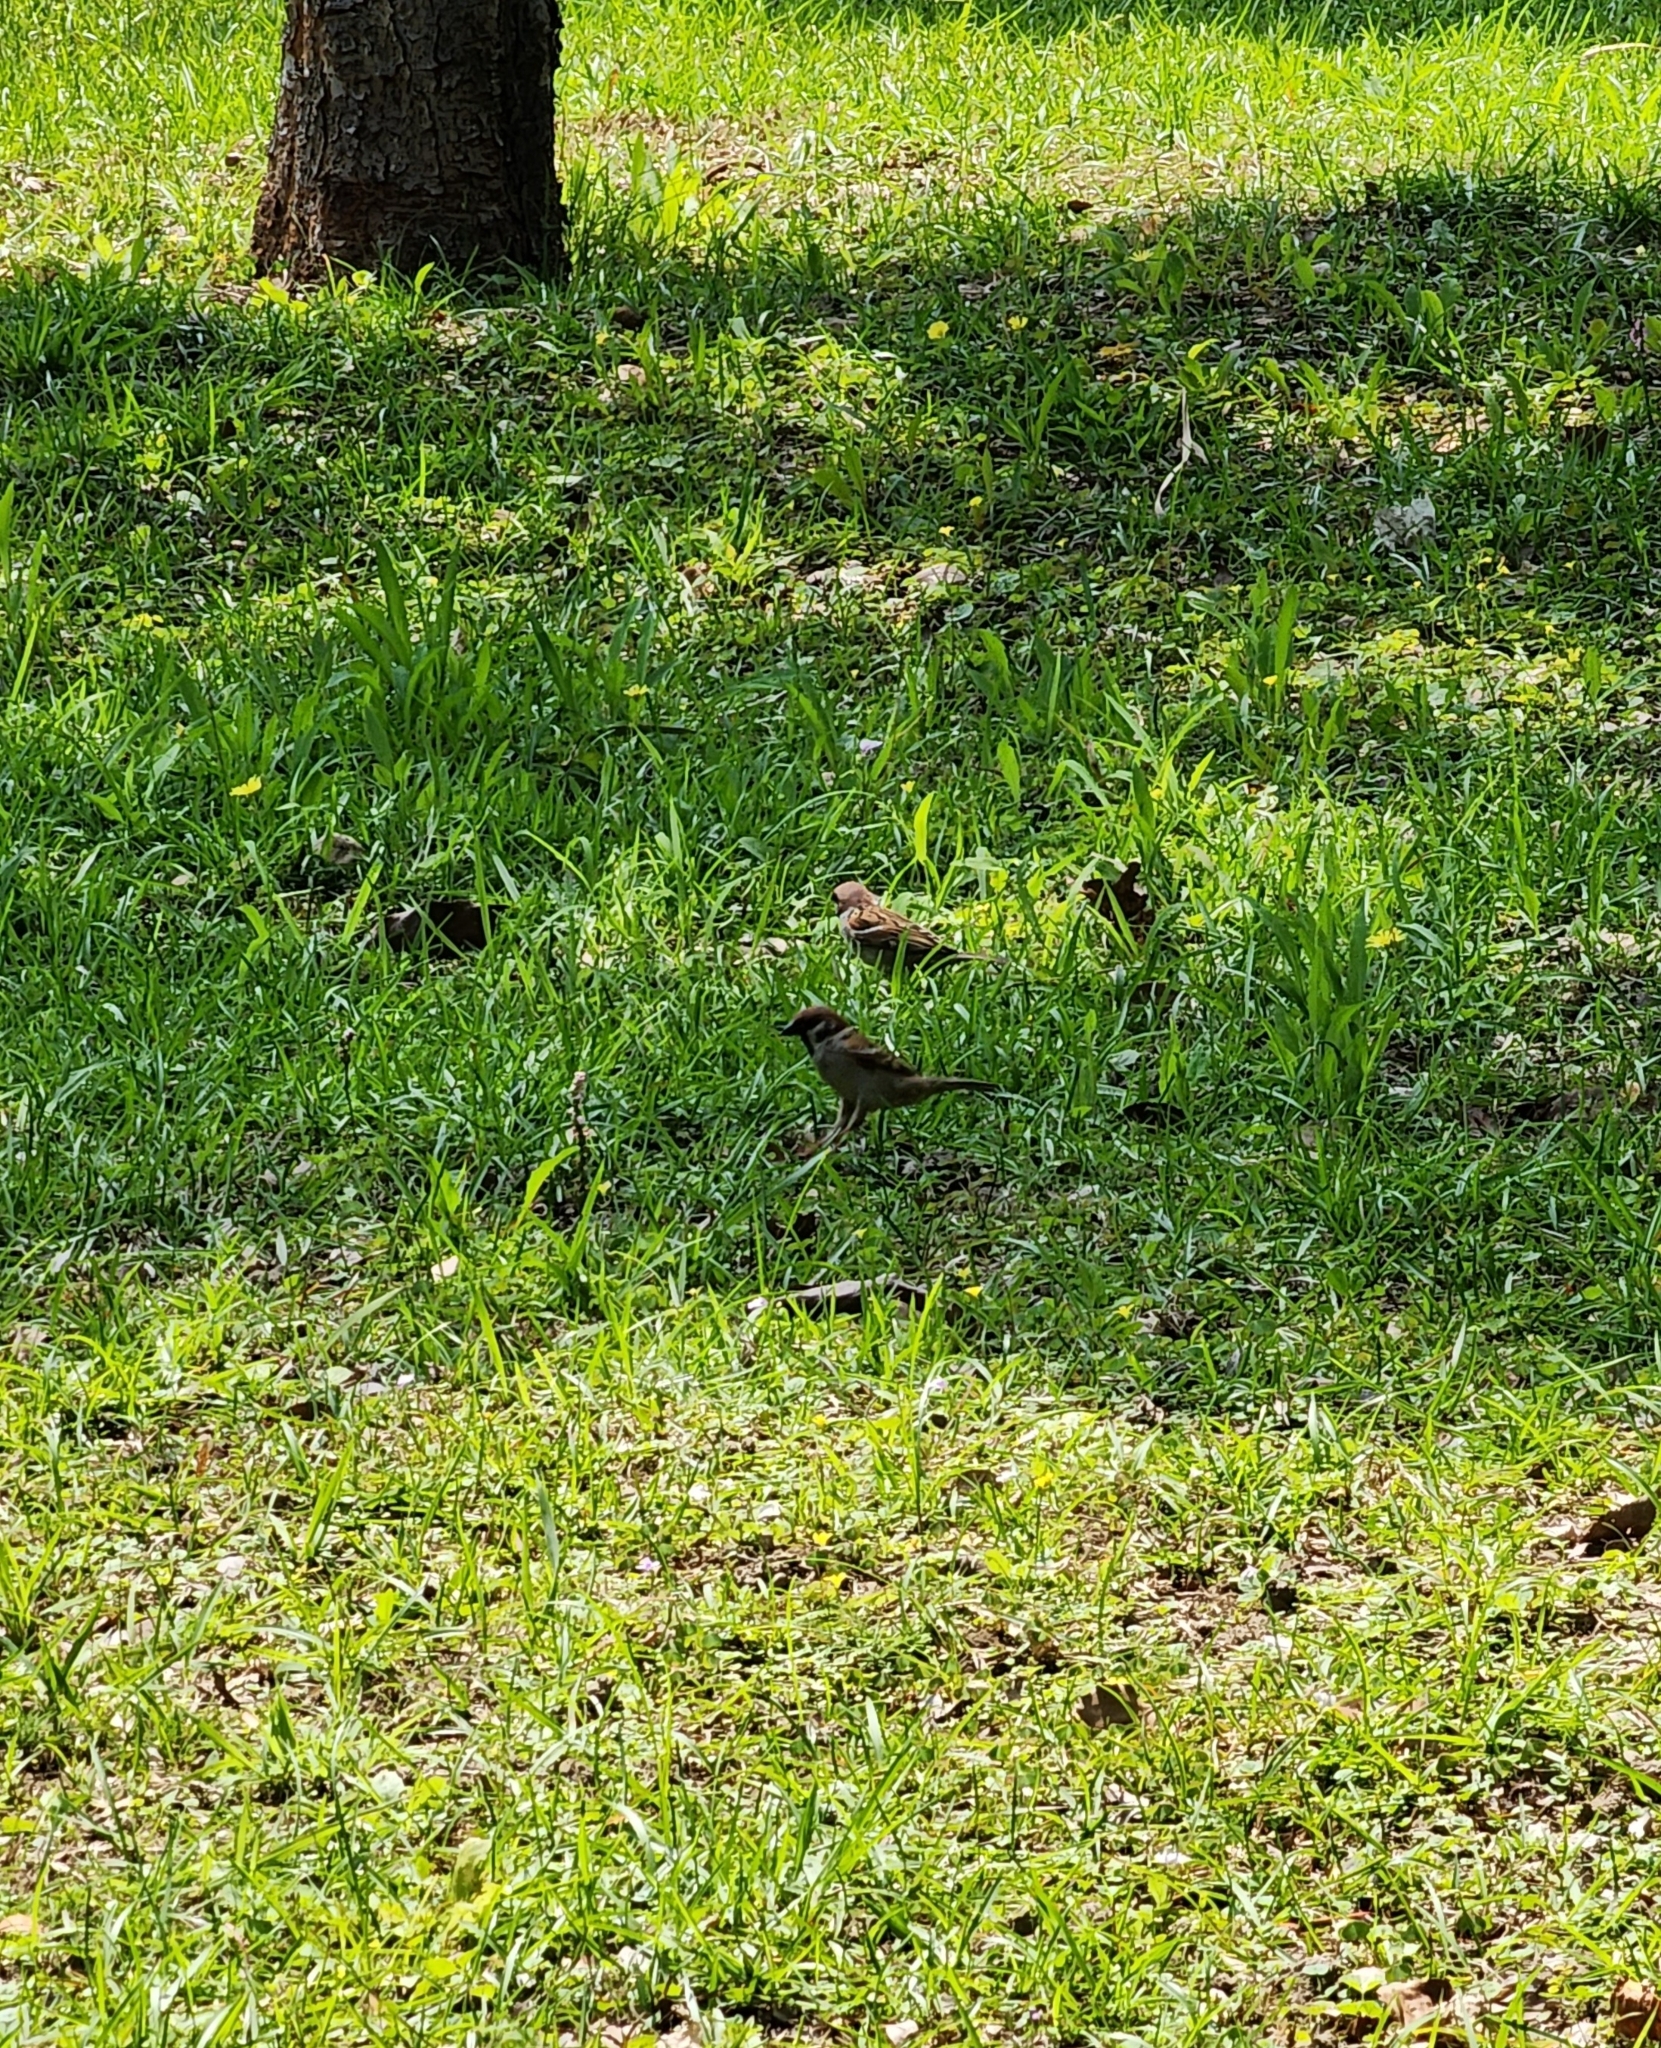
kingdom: Animalia
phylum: Chordata
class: Aves
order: Passeriformes
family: Passeridae
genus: Passer
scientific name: Passer montanus
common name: Eurasian tree sparrow
